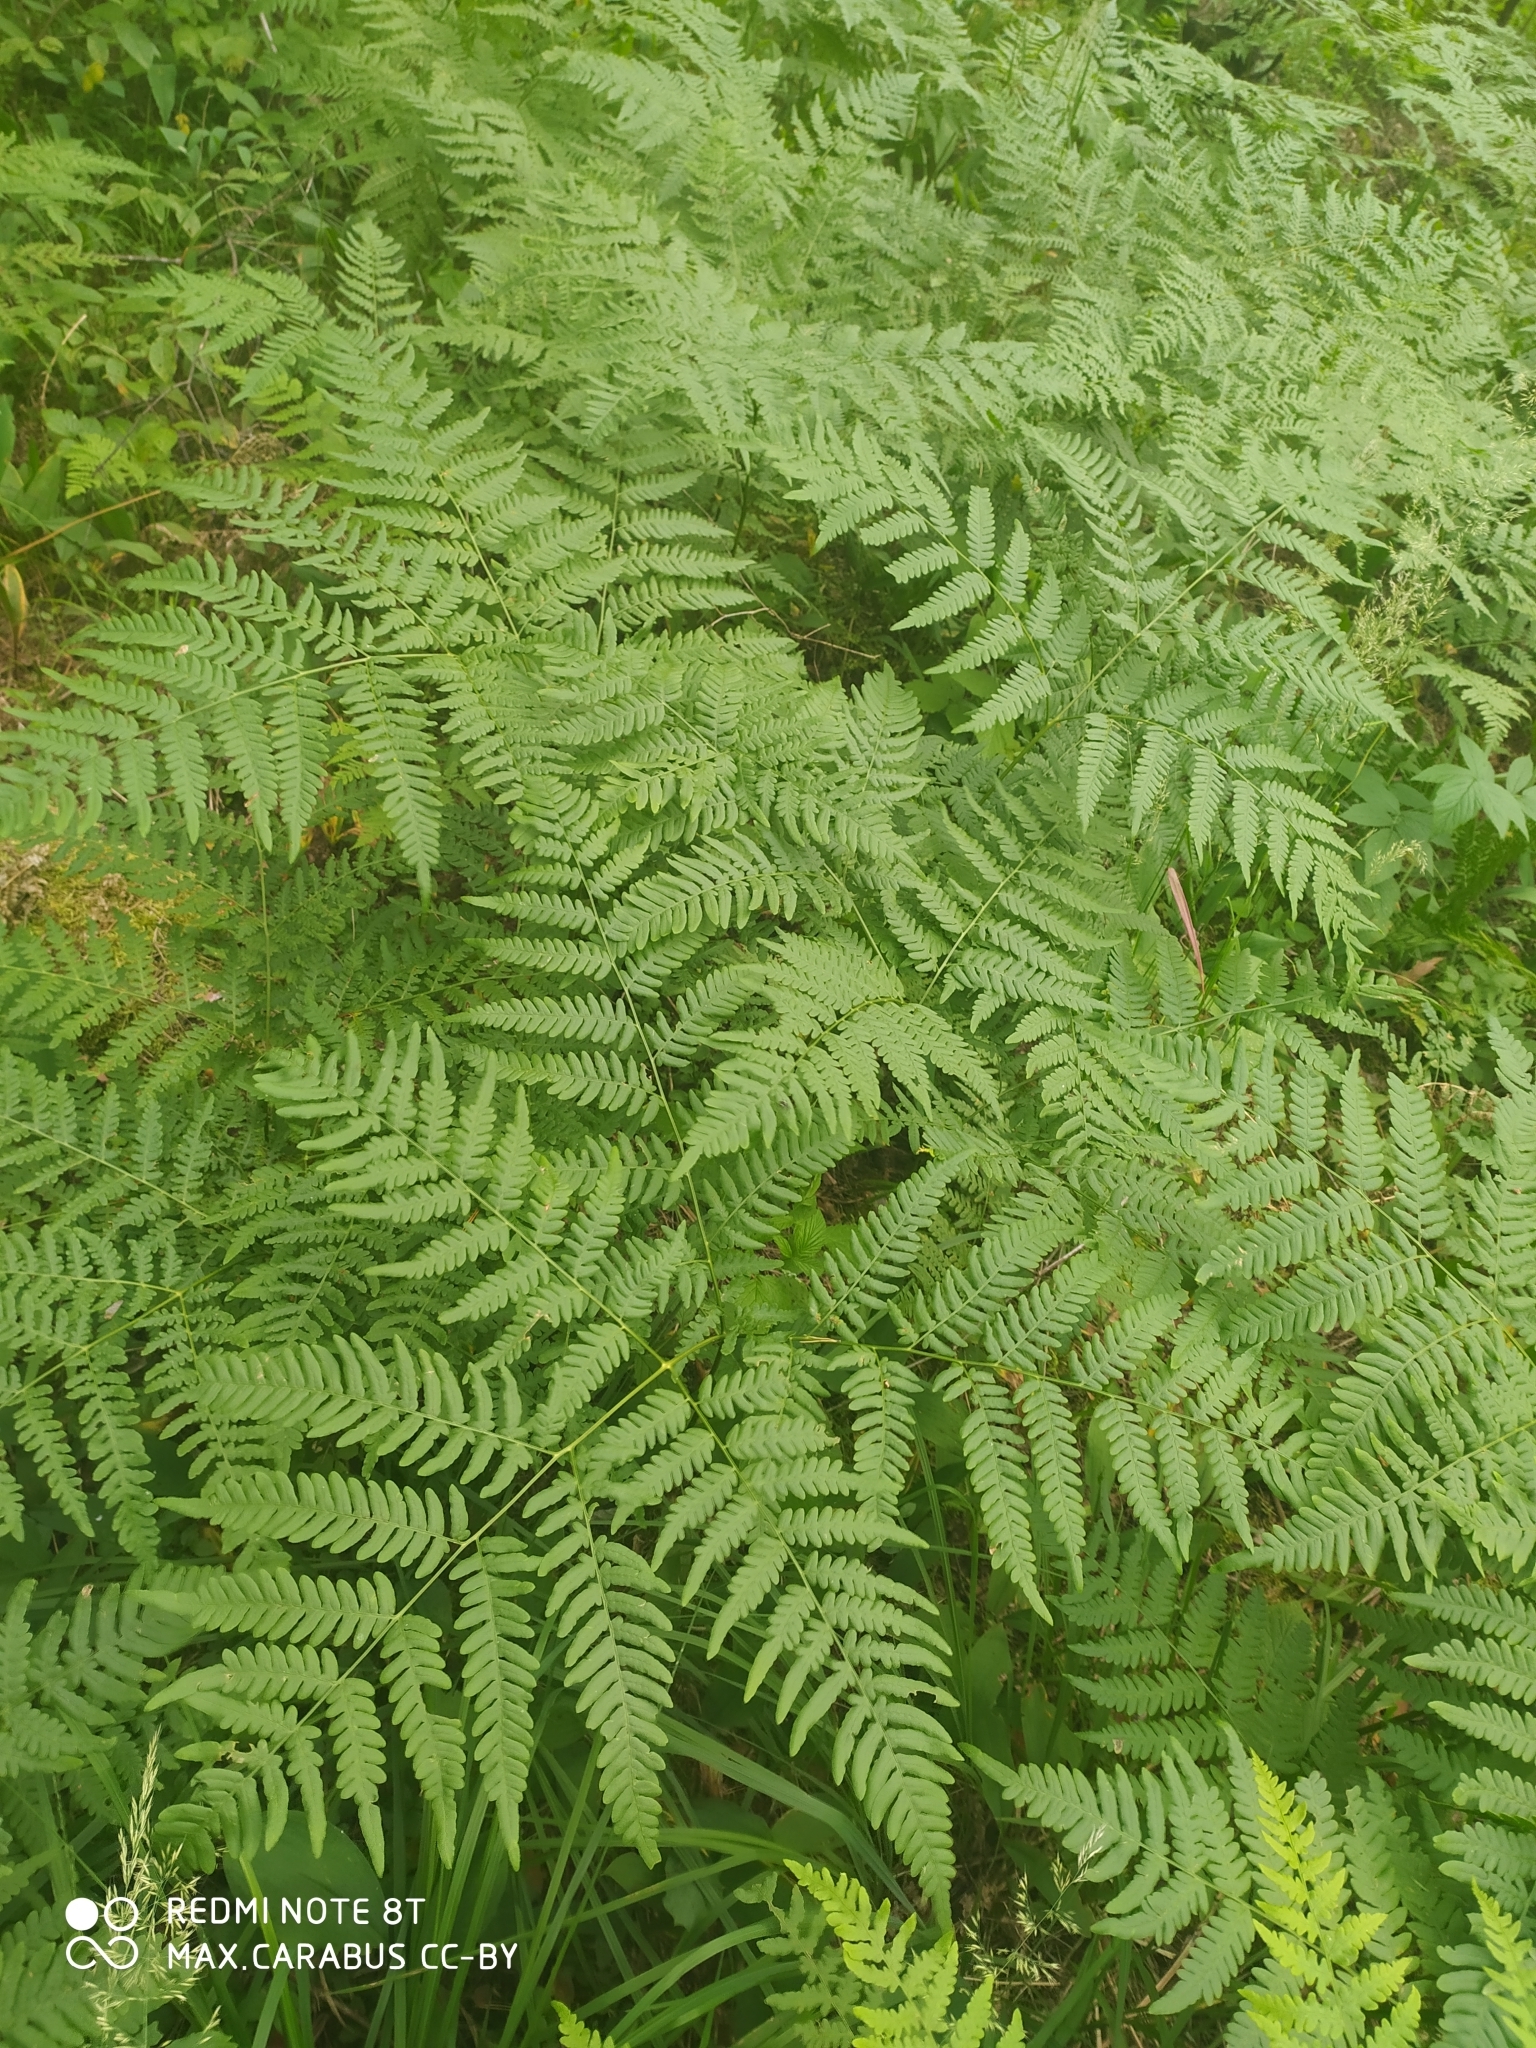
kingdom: Plantae
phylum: Tracheophyta
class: Polypodiopsida
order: Polypodiales
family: Dennstaedtiaceae
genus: Pteridium
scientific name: Pteridium aquilinum
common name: Bracken
